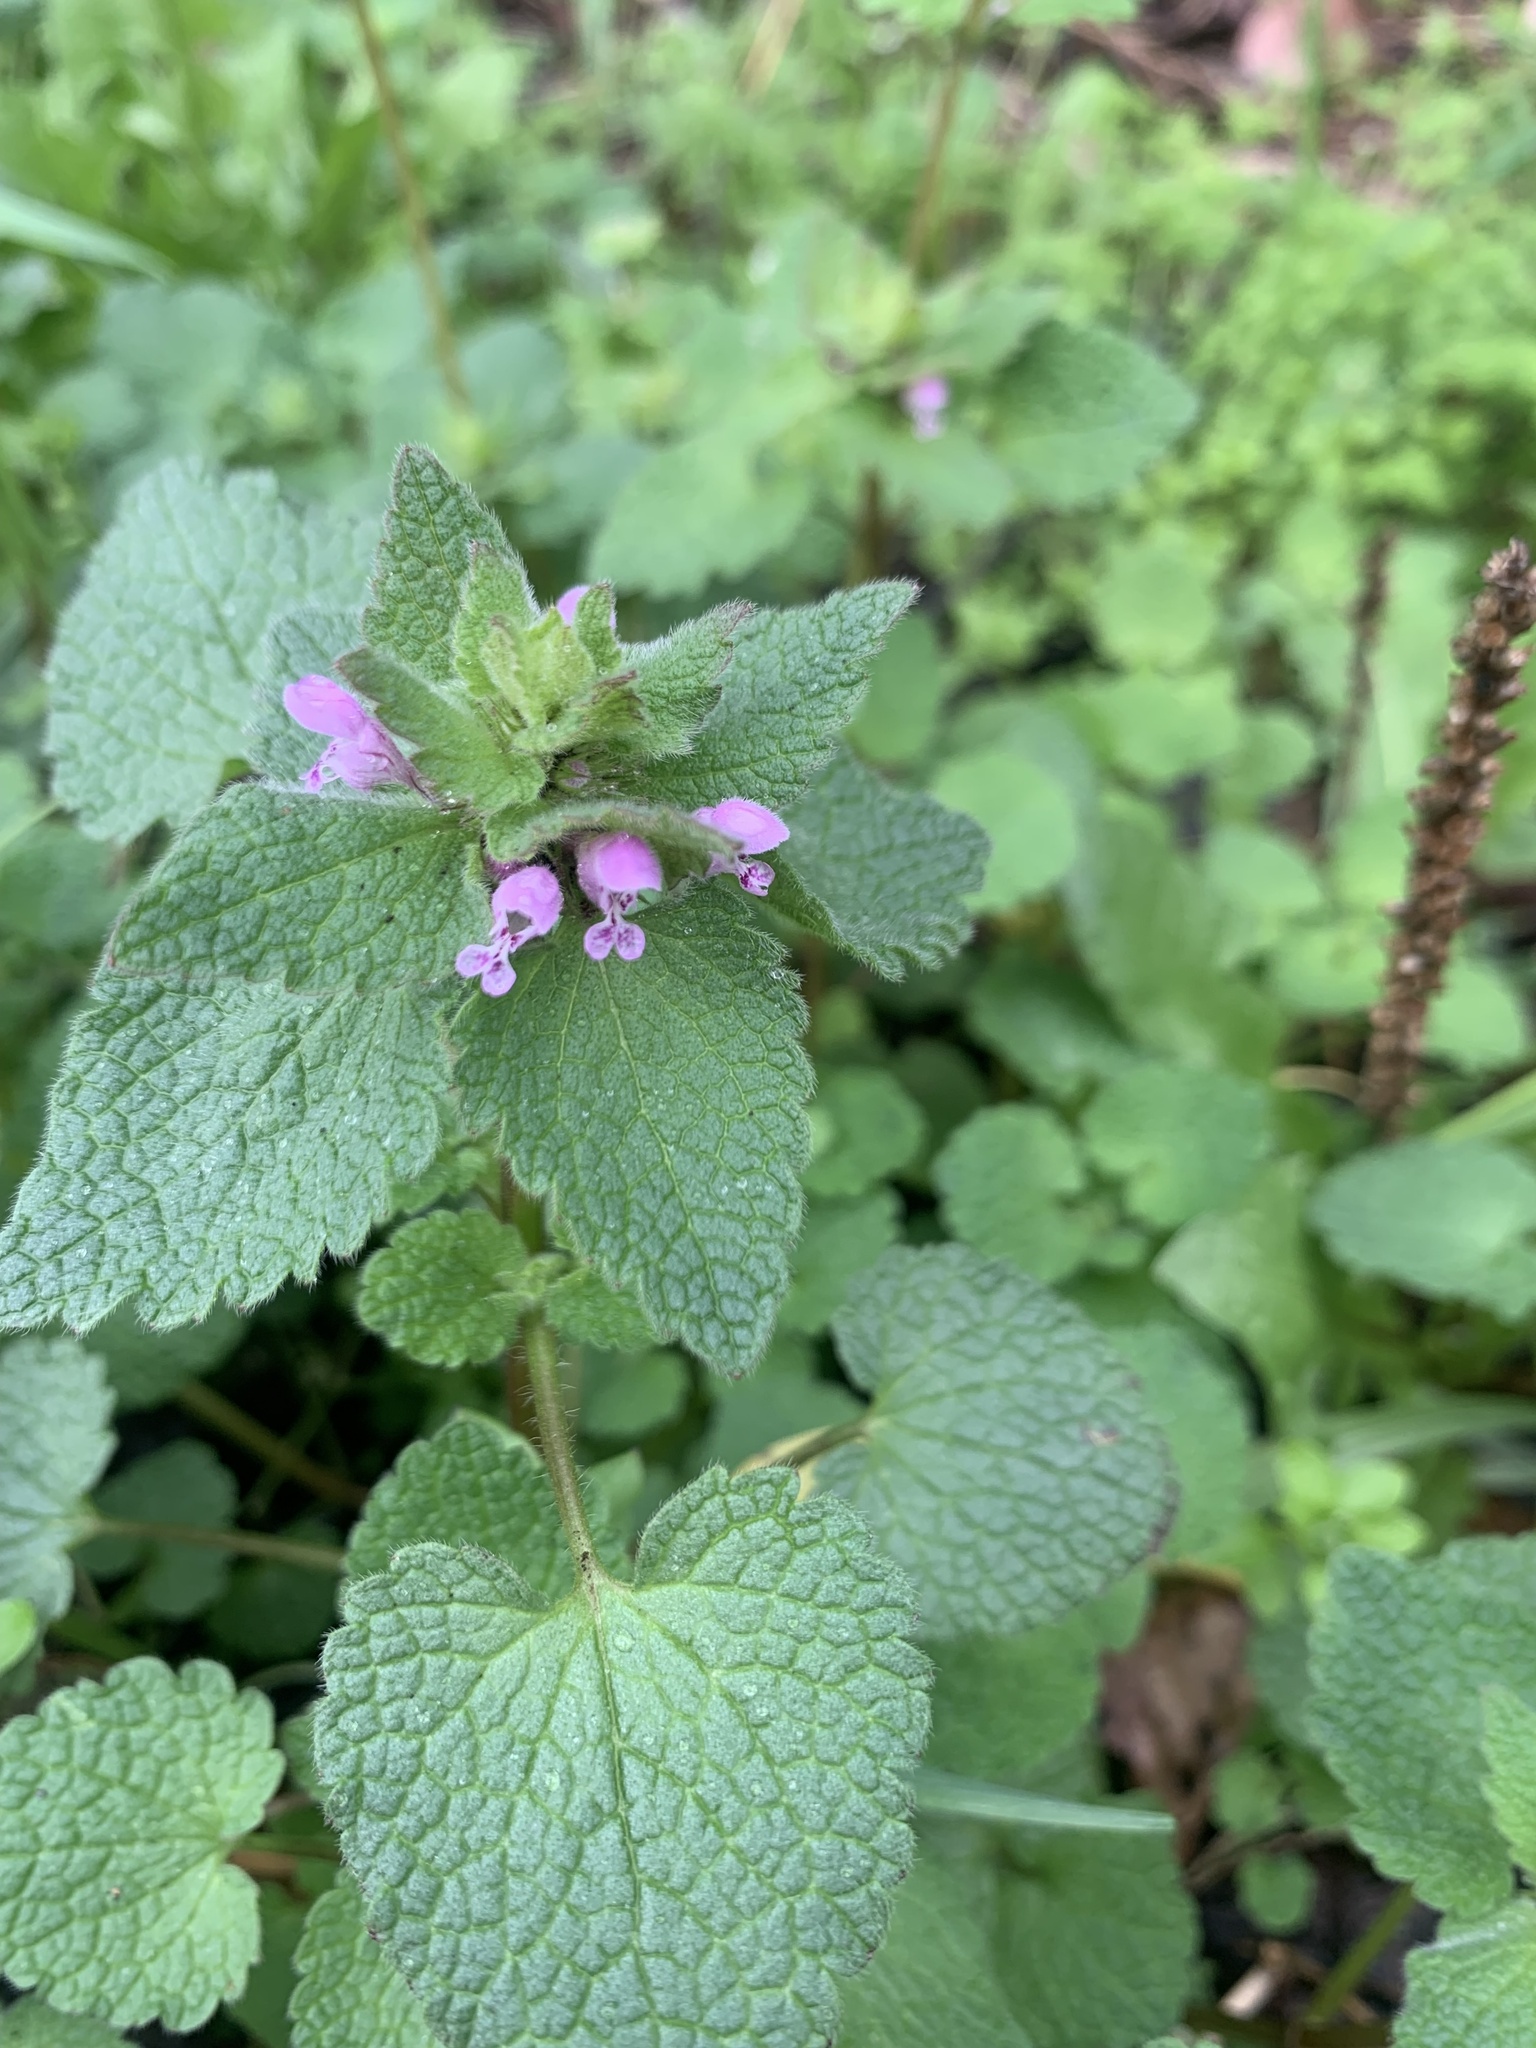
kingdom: Plantae
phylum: Tracheophyta
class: Magnoliopsida
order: Lamiales
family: Lamiaceae
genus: Lamium
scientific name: Lamium purpureum
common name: Red dead-nettle
